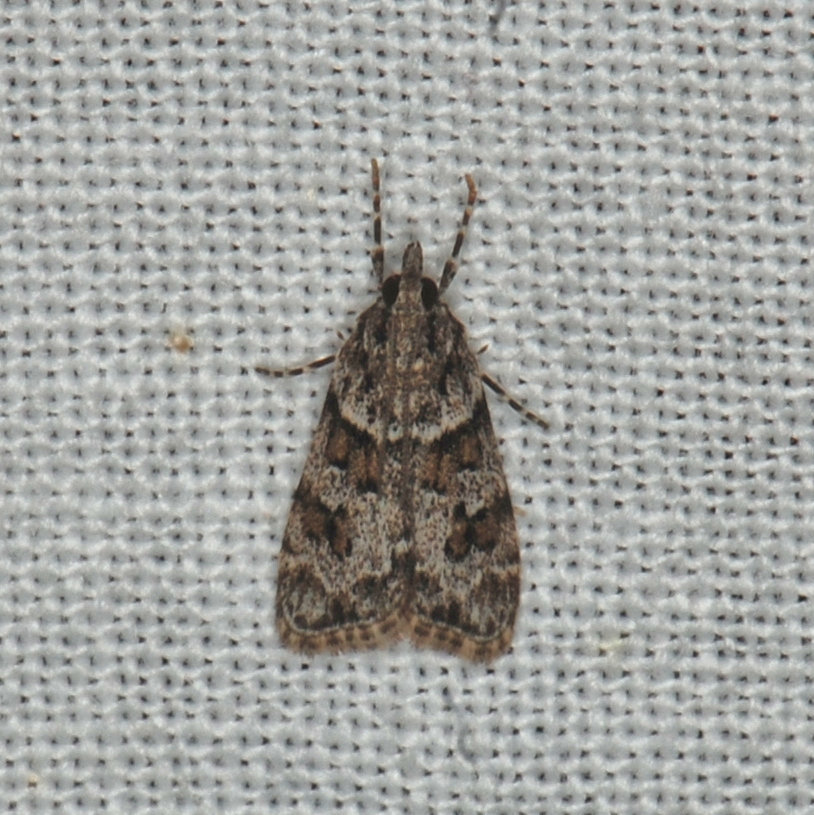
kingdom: Animalia
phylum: Arthropoda
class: Insecta
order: Lepidoptera
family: Crambidae
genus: Scoparia
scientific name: Scoparia biplagialis
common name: Double-striped scoparia moth
